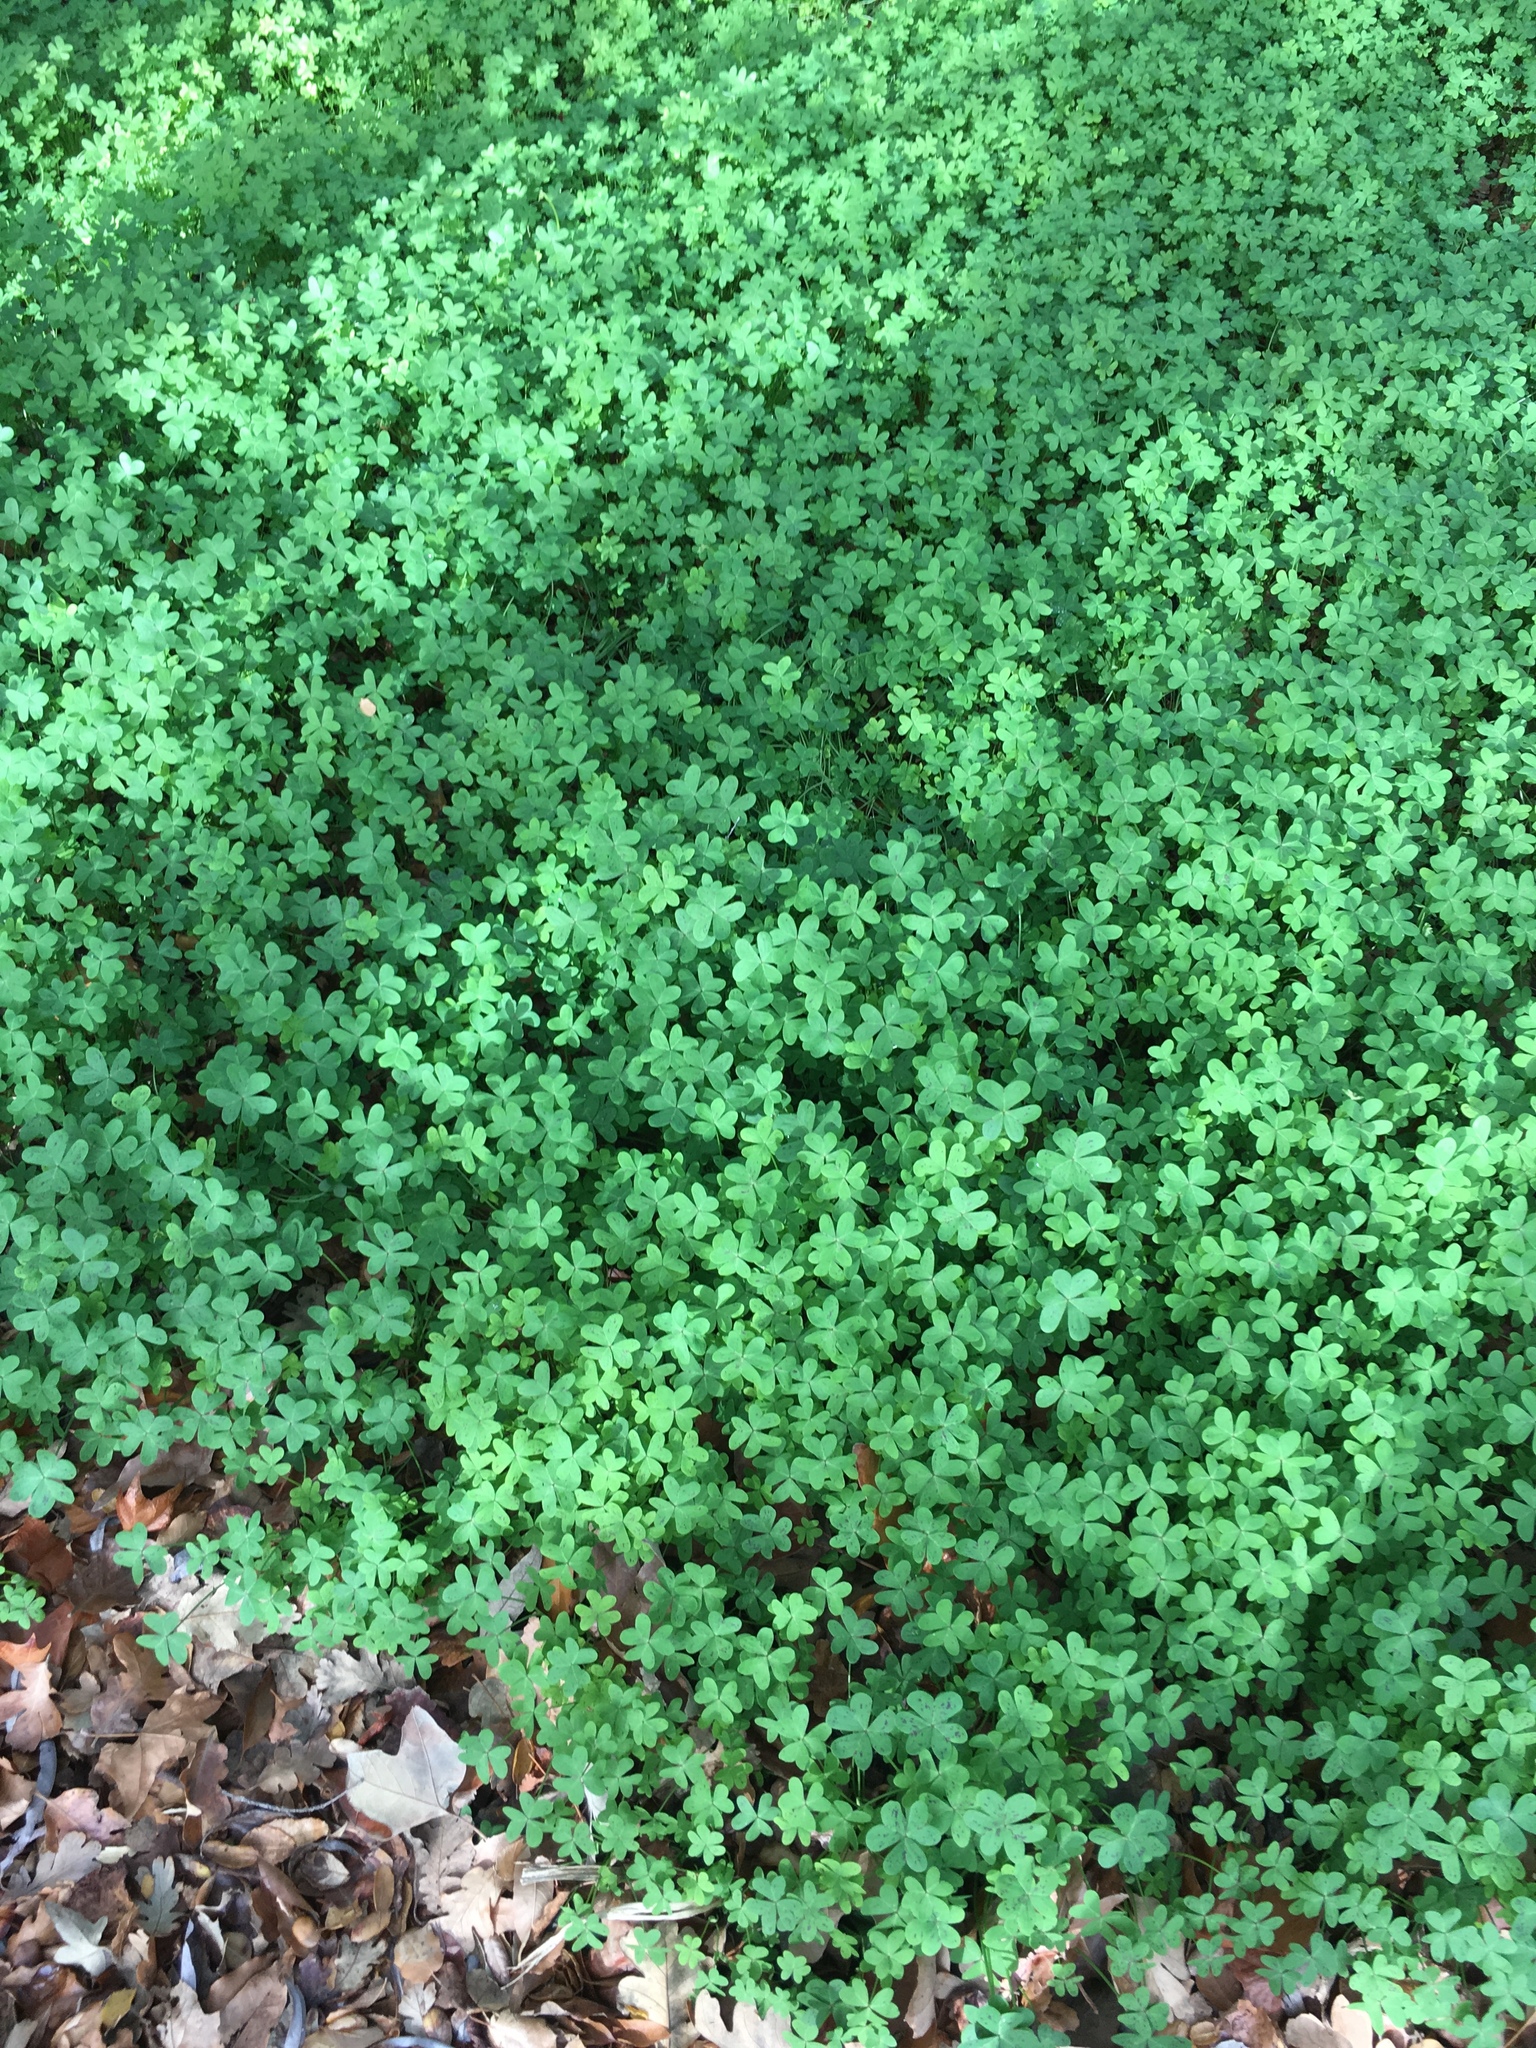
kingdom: Plantae
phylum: Tracheophyta
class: Magnoliopsida
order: Oxalidales
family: Oxalidaceae
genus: Oxalis
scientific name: Oxalis pes-caprae
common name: Bermuda-buttercup
